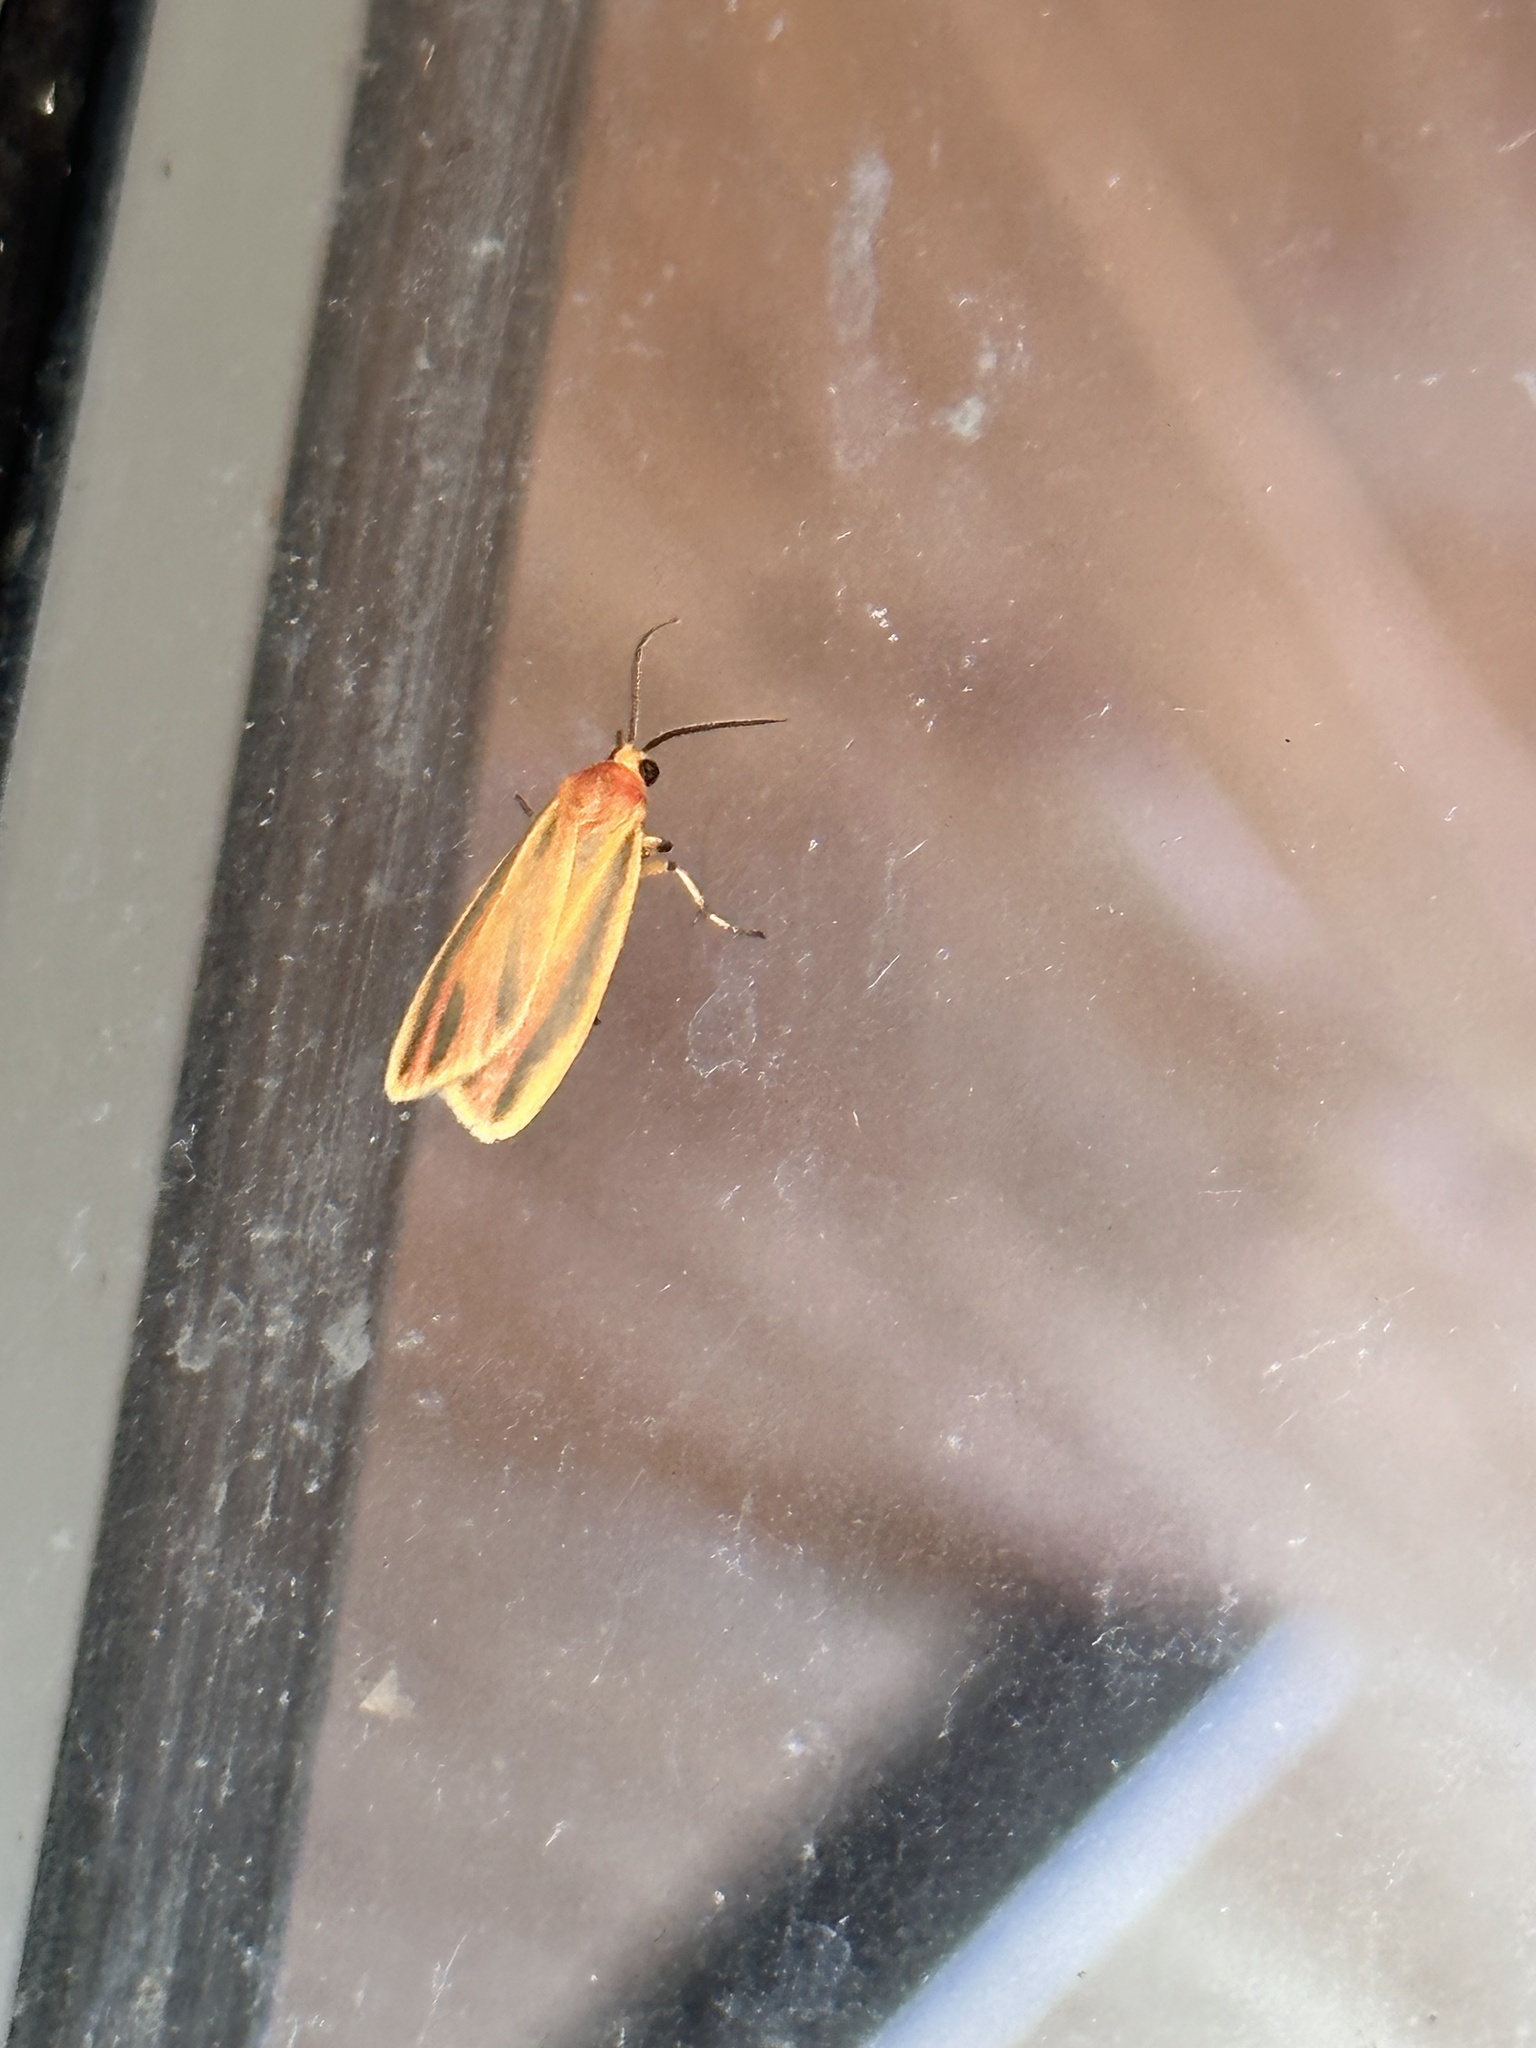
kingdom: Animalia
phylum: Arthropoda
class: Insecta
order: Lepidoptera
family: Erebidae
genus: Hypoprepia
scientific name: Hypoprepia fucosa
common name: Painted lichen moth
